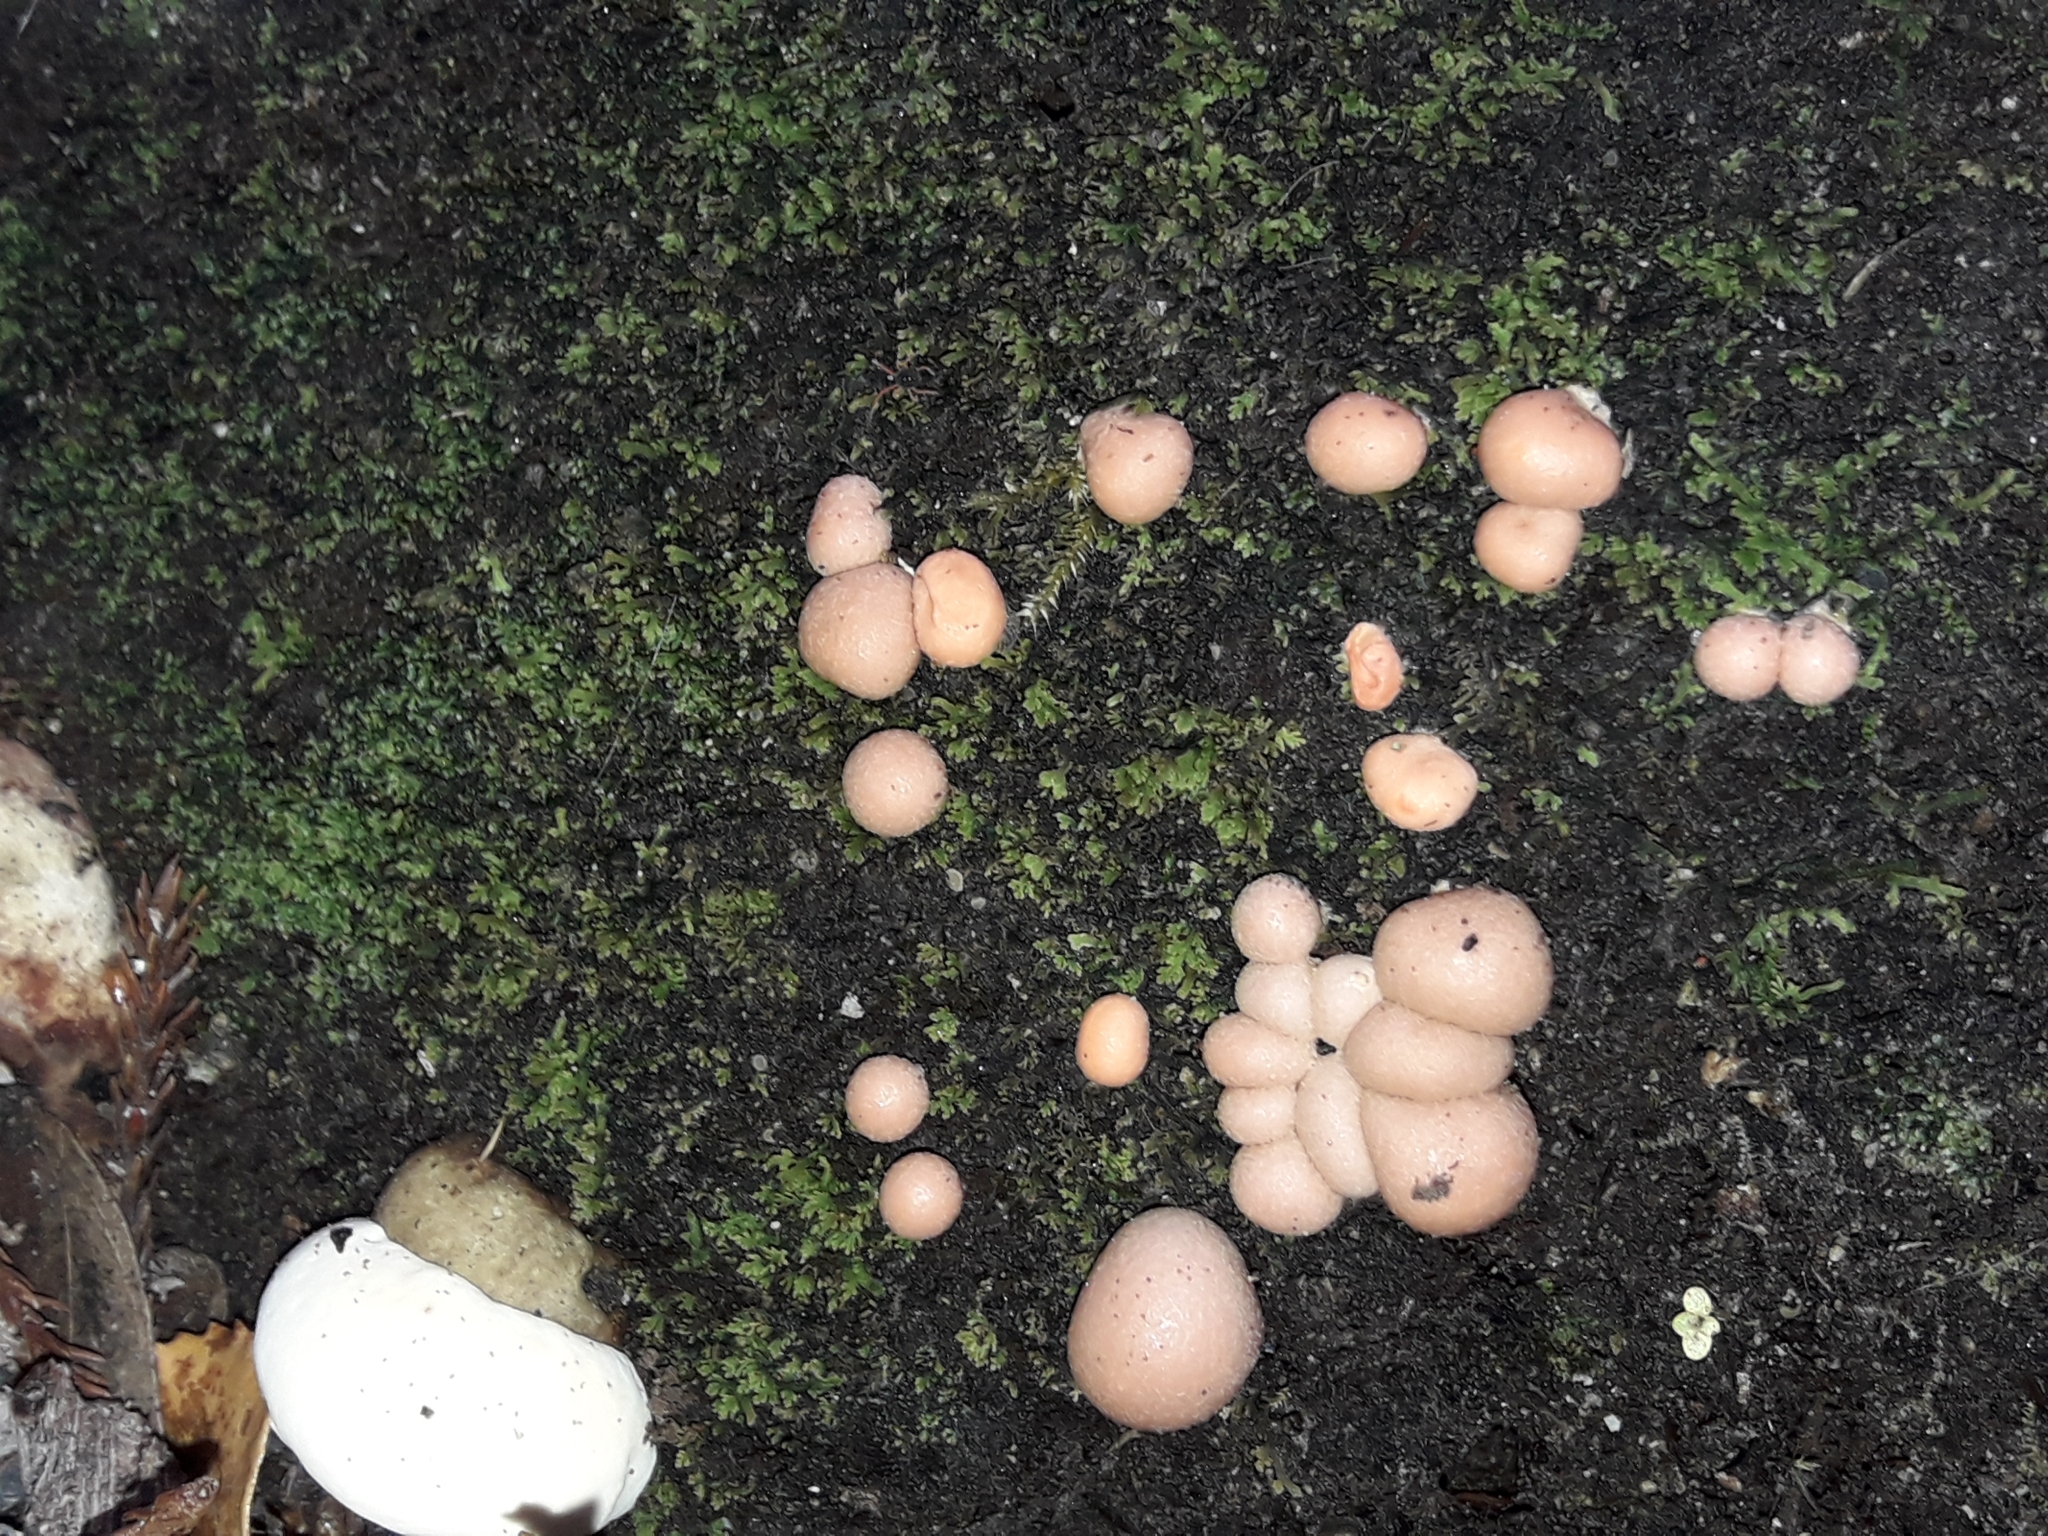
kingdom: Protozoa
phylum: Mycetozoa
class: Myxomycetes
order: Cribrariales
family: Tubiferaceae
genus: Lycogala
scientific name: Lycogala epidendrum
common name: Wolf's milk
